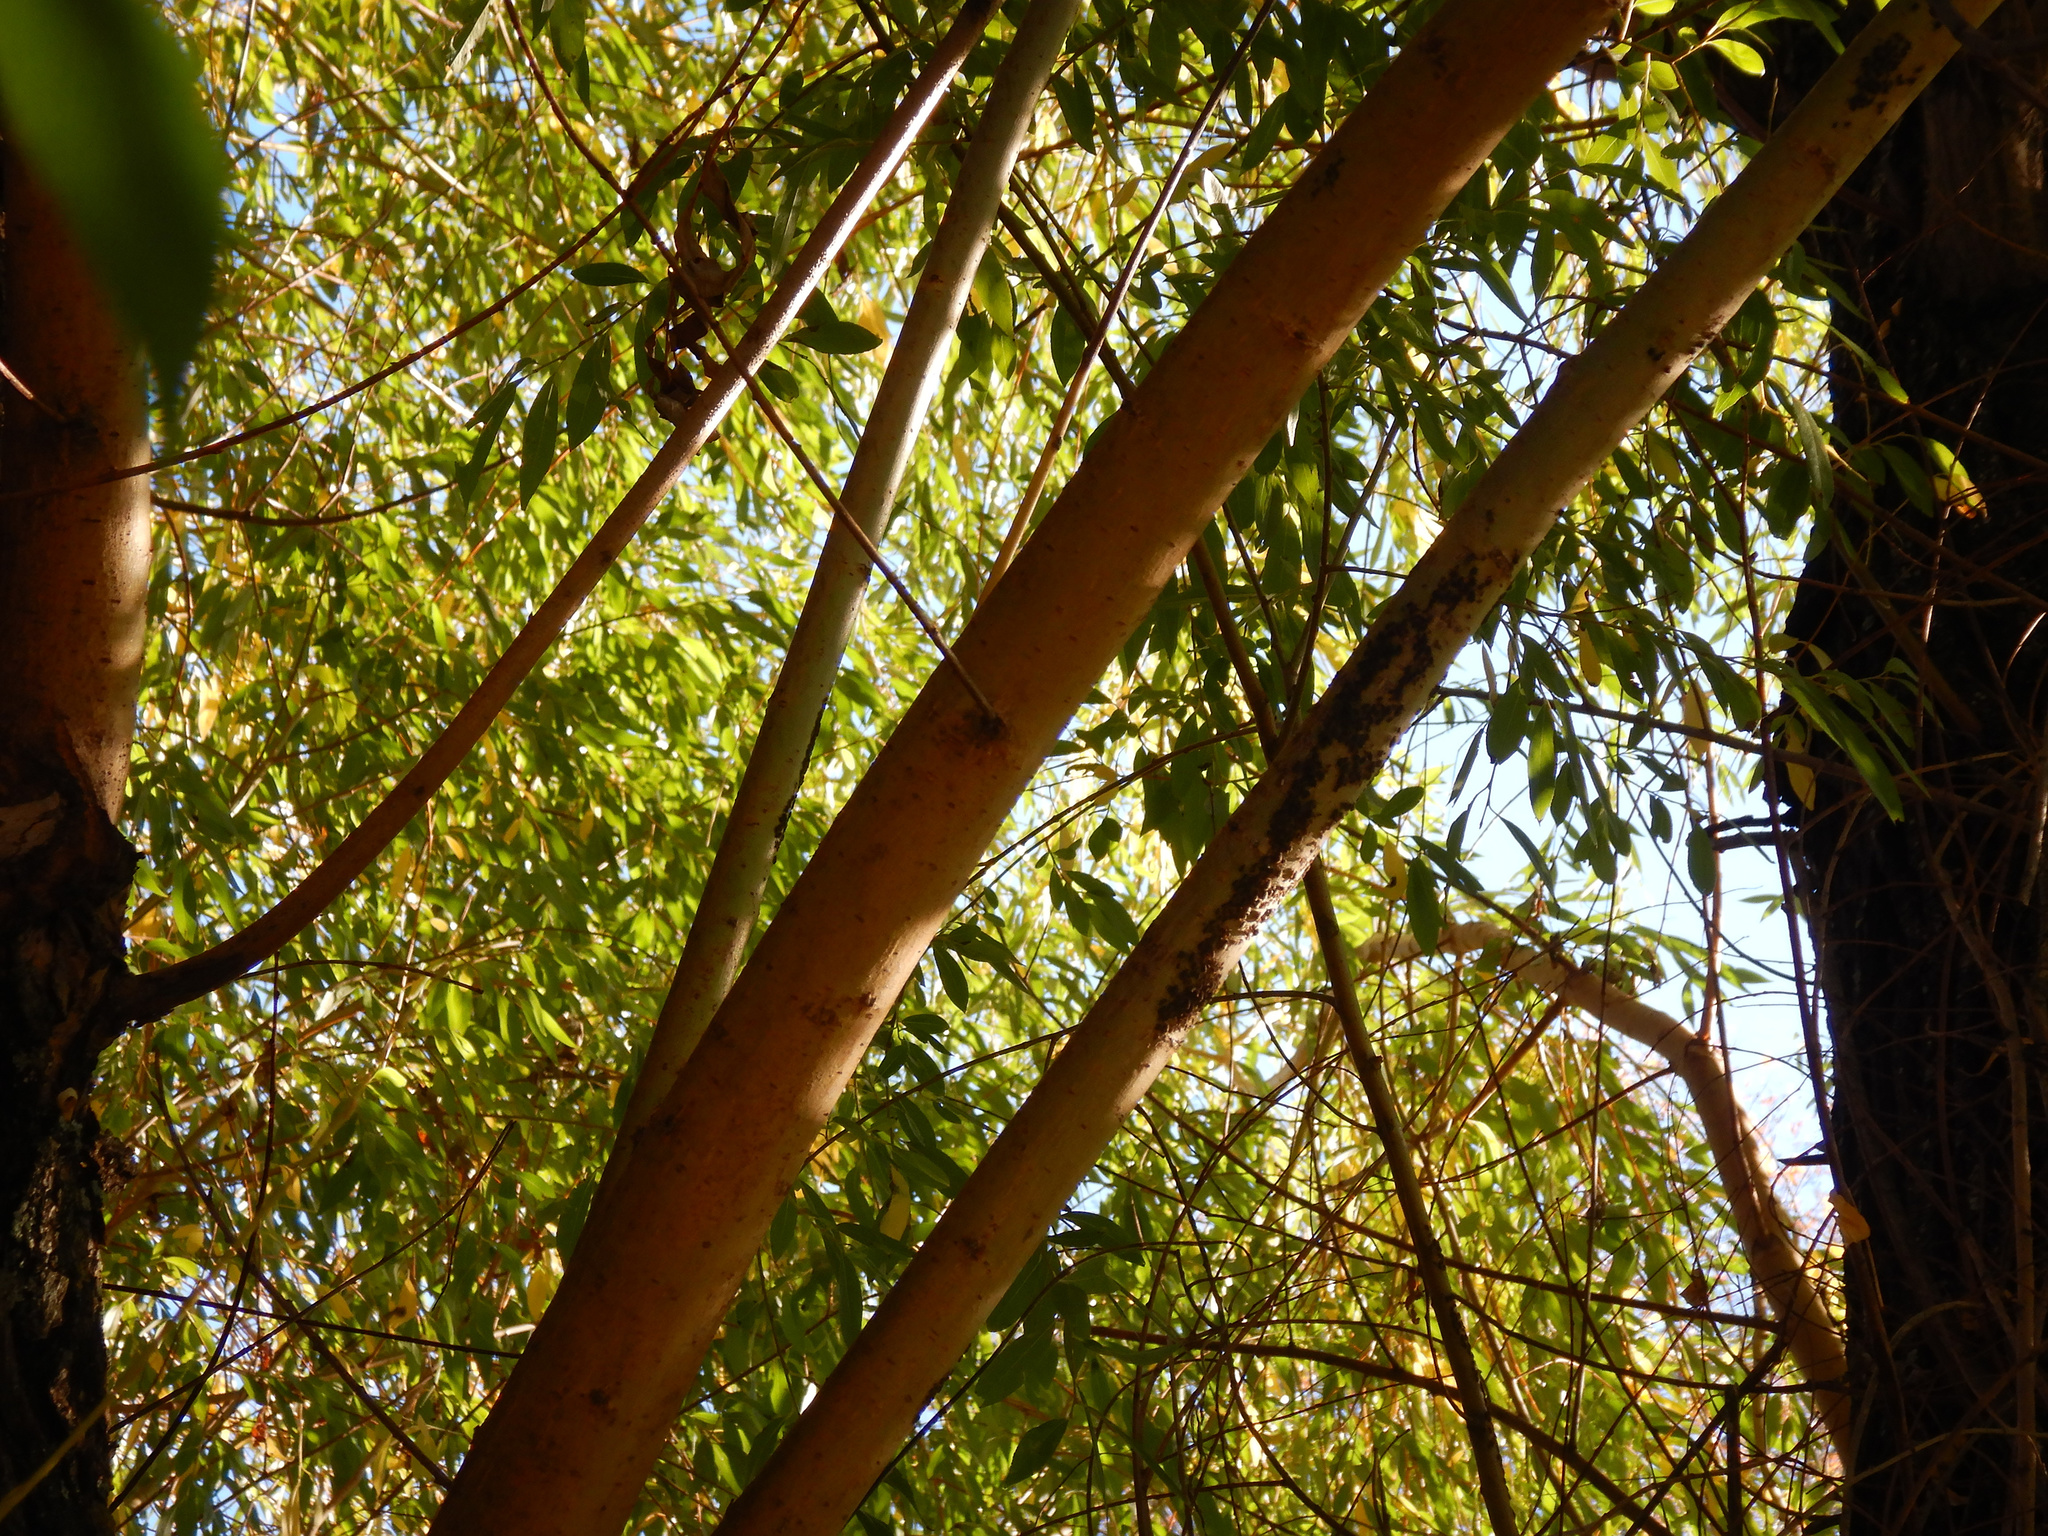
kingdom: Animalia
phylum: Arthropoda
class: Insecta
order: Hemiptera
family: Aphididae
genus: Tuberolachnus
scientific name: Tuberolachnus salignus
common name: Giant willow aphid
